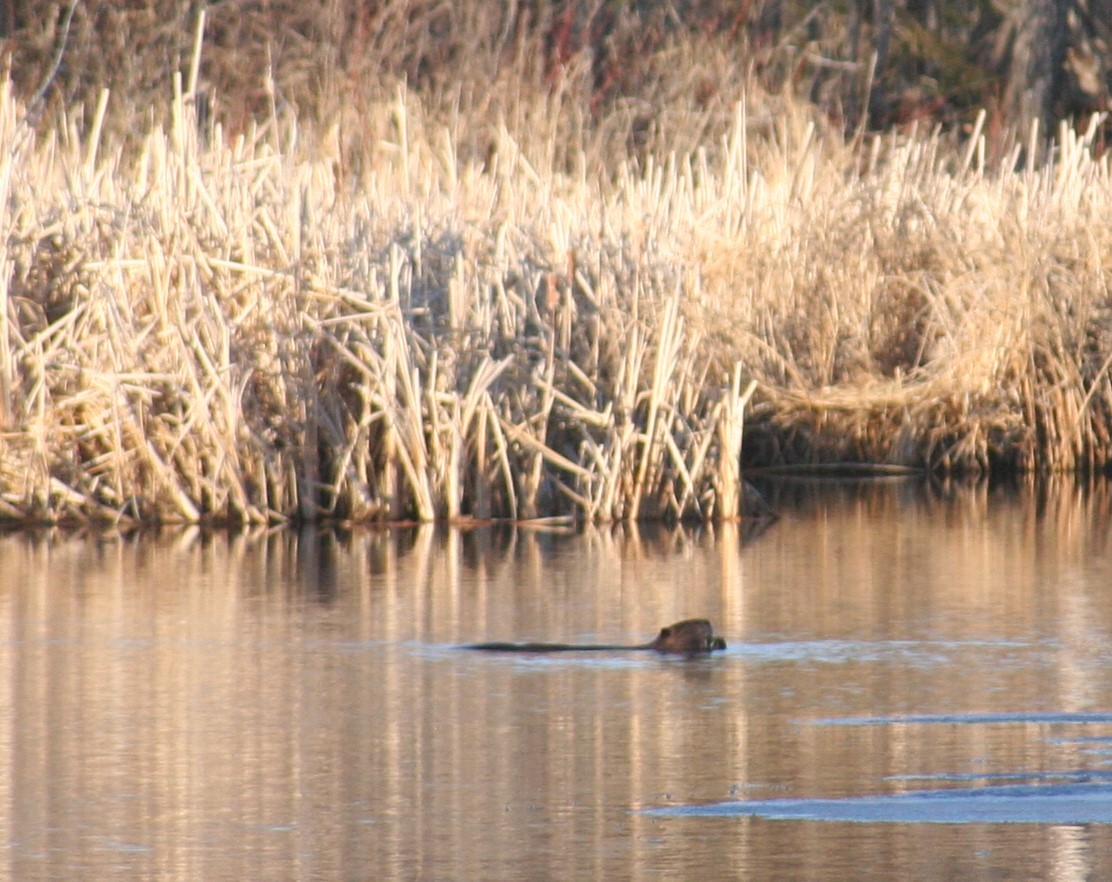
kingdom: Animalia
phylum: Chordata
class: Mammalia
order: Rodentia
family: Castoridae
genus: Castor
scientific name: Castor canadensis
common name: American beaver
